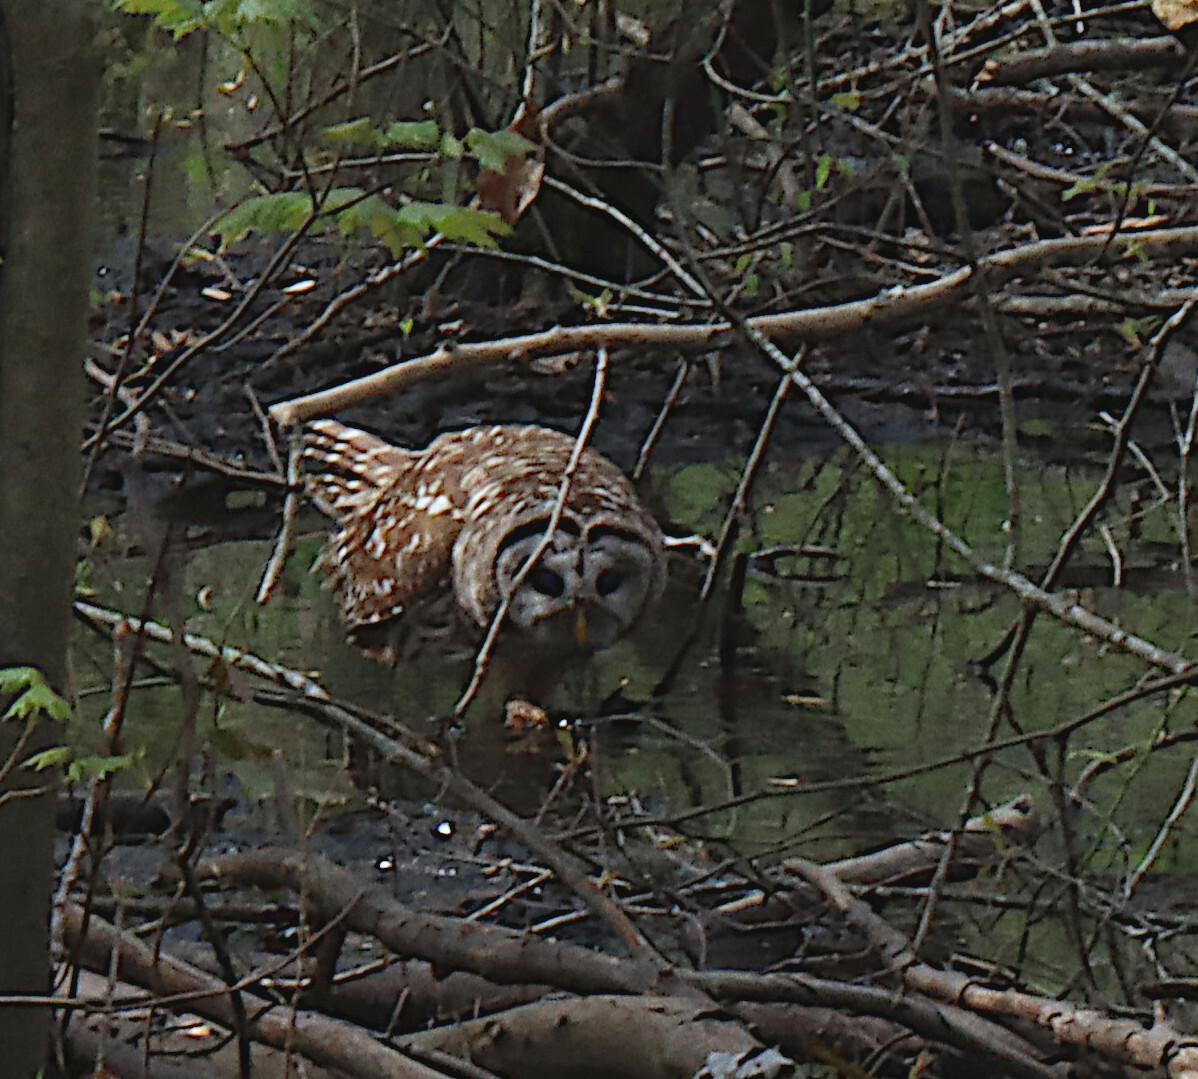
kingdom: Animalia
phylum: Chordata
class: Aves
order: Strigiformes
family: Strigidae
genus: Strix
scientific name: Strix varia
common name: Barred owl
